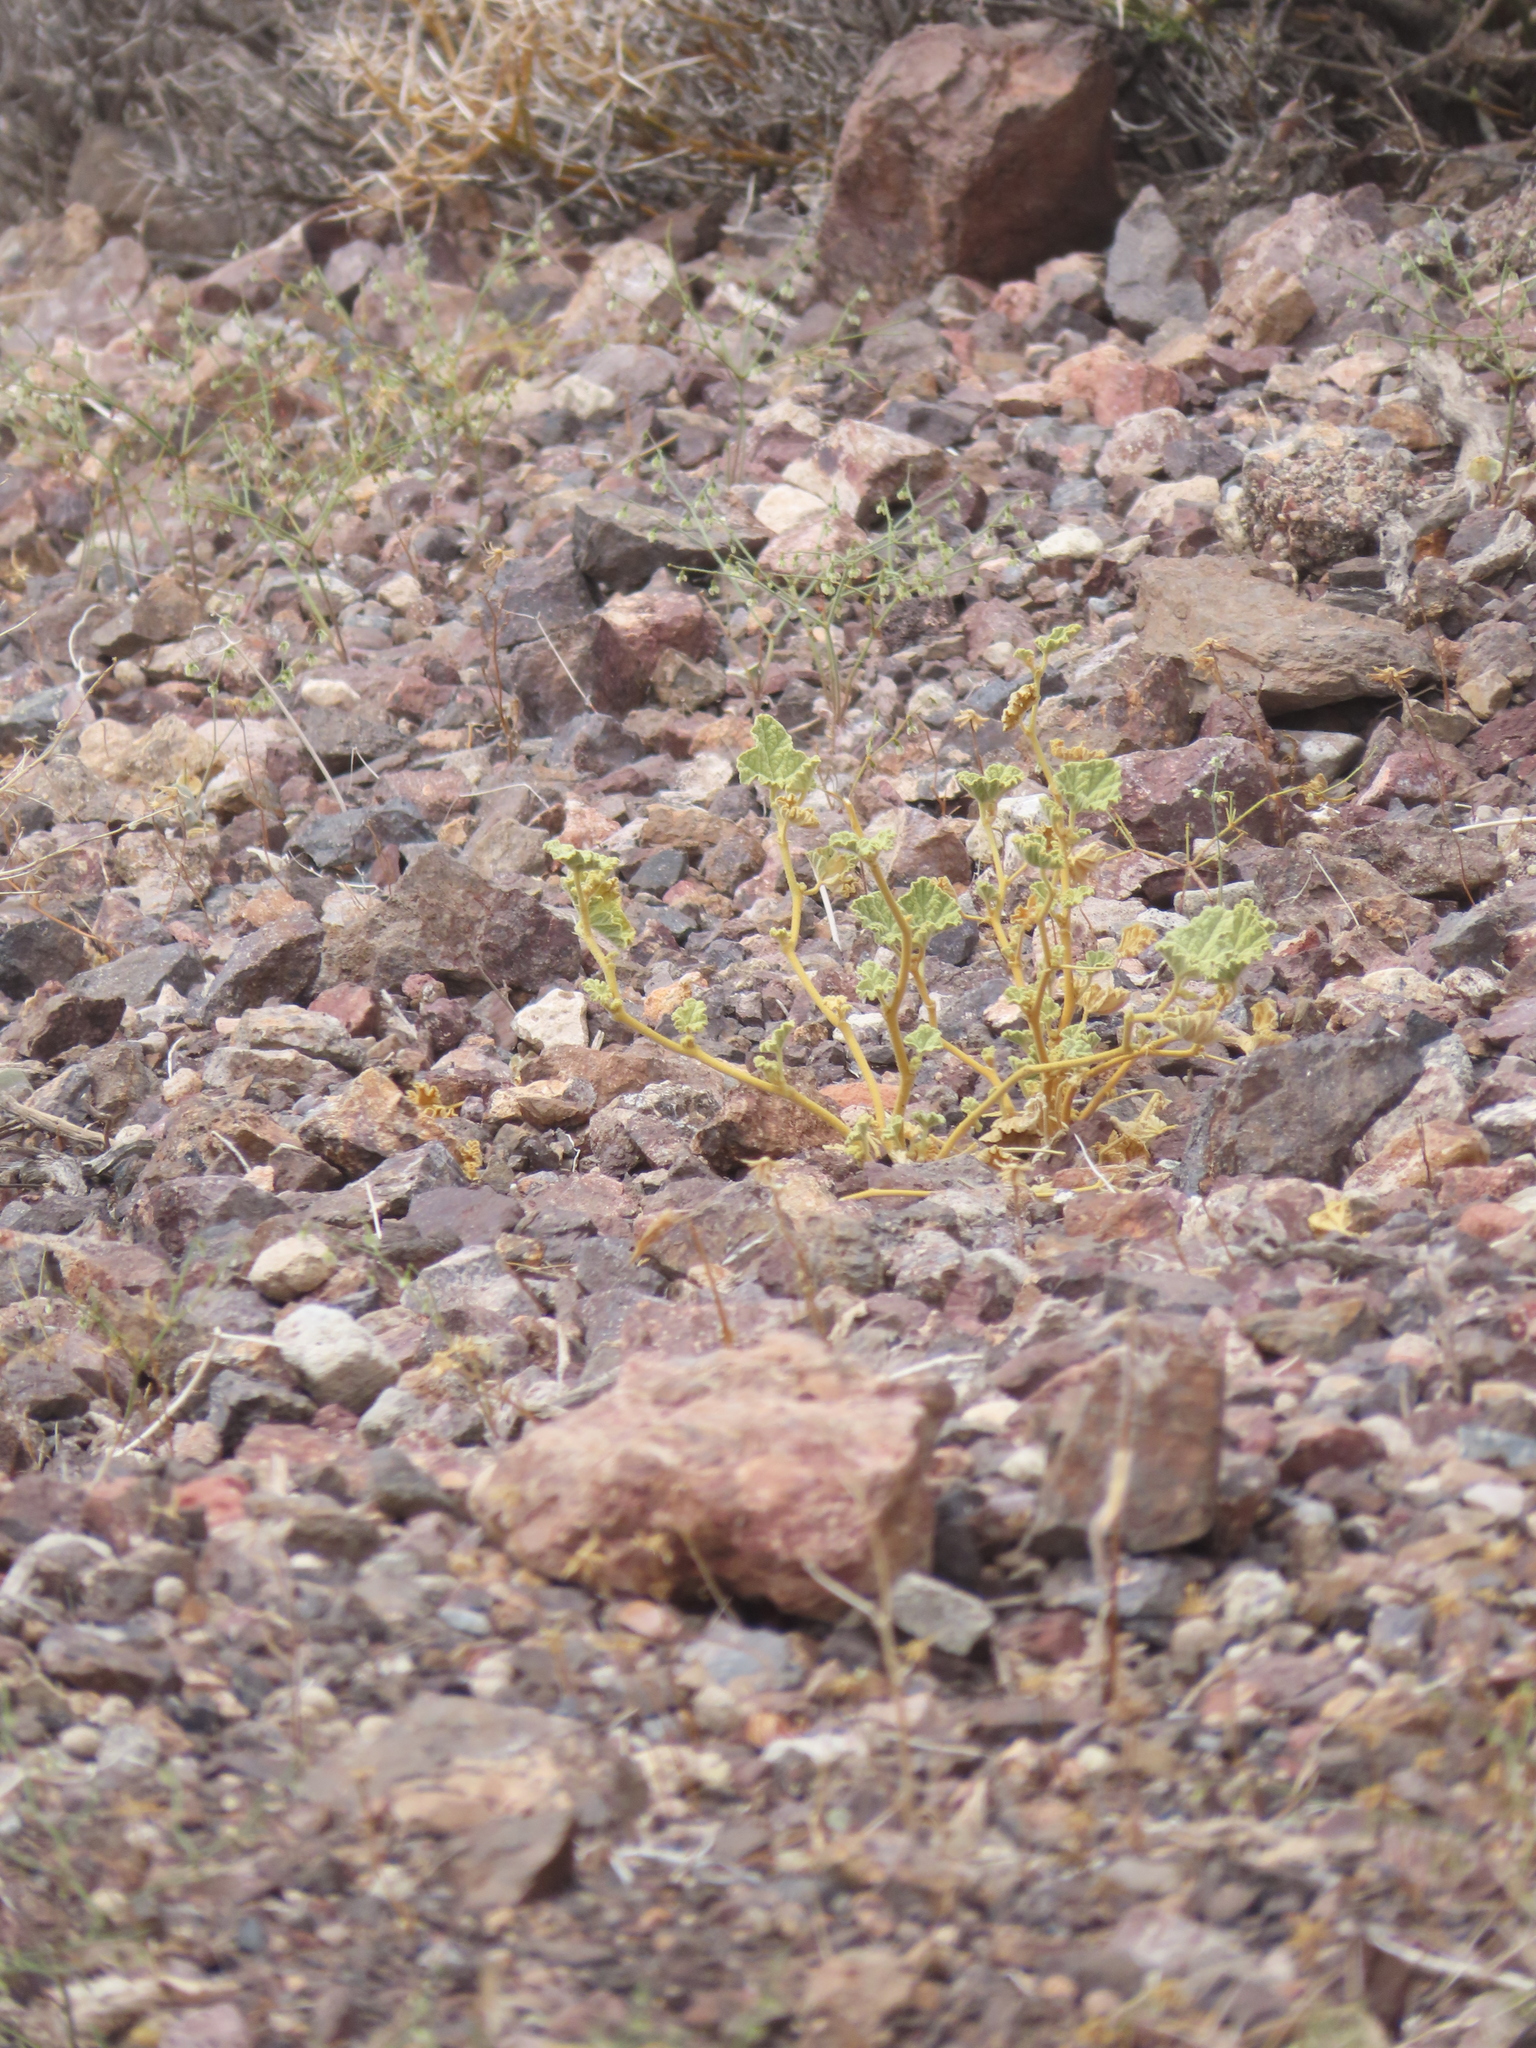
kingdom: Plantae
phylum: Tracheophyta
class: Magnoliopsida
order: Malvales
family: Malvaceae
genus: Sphaeralcea
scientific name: Sphaeralcea ambigua
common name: Apricot globe-mallow
